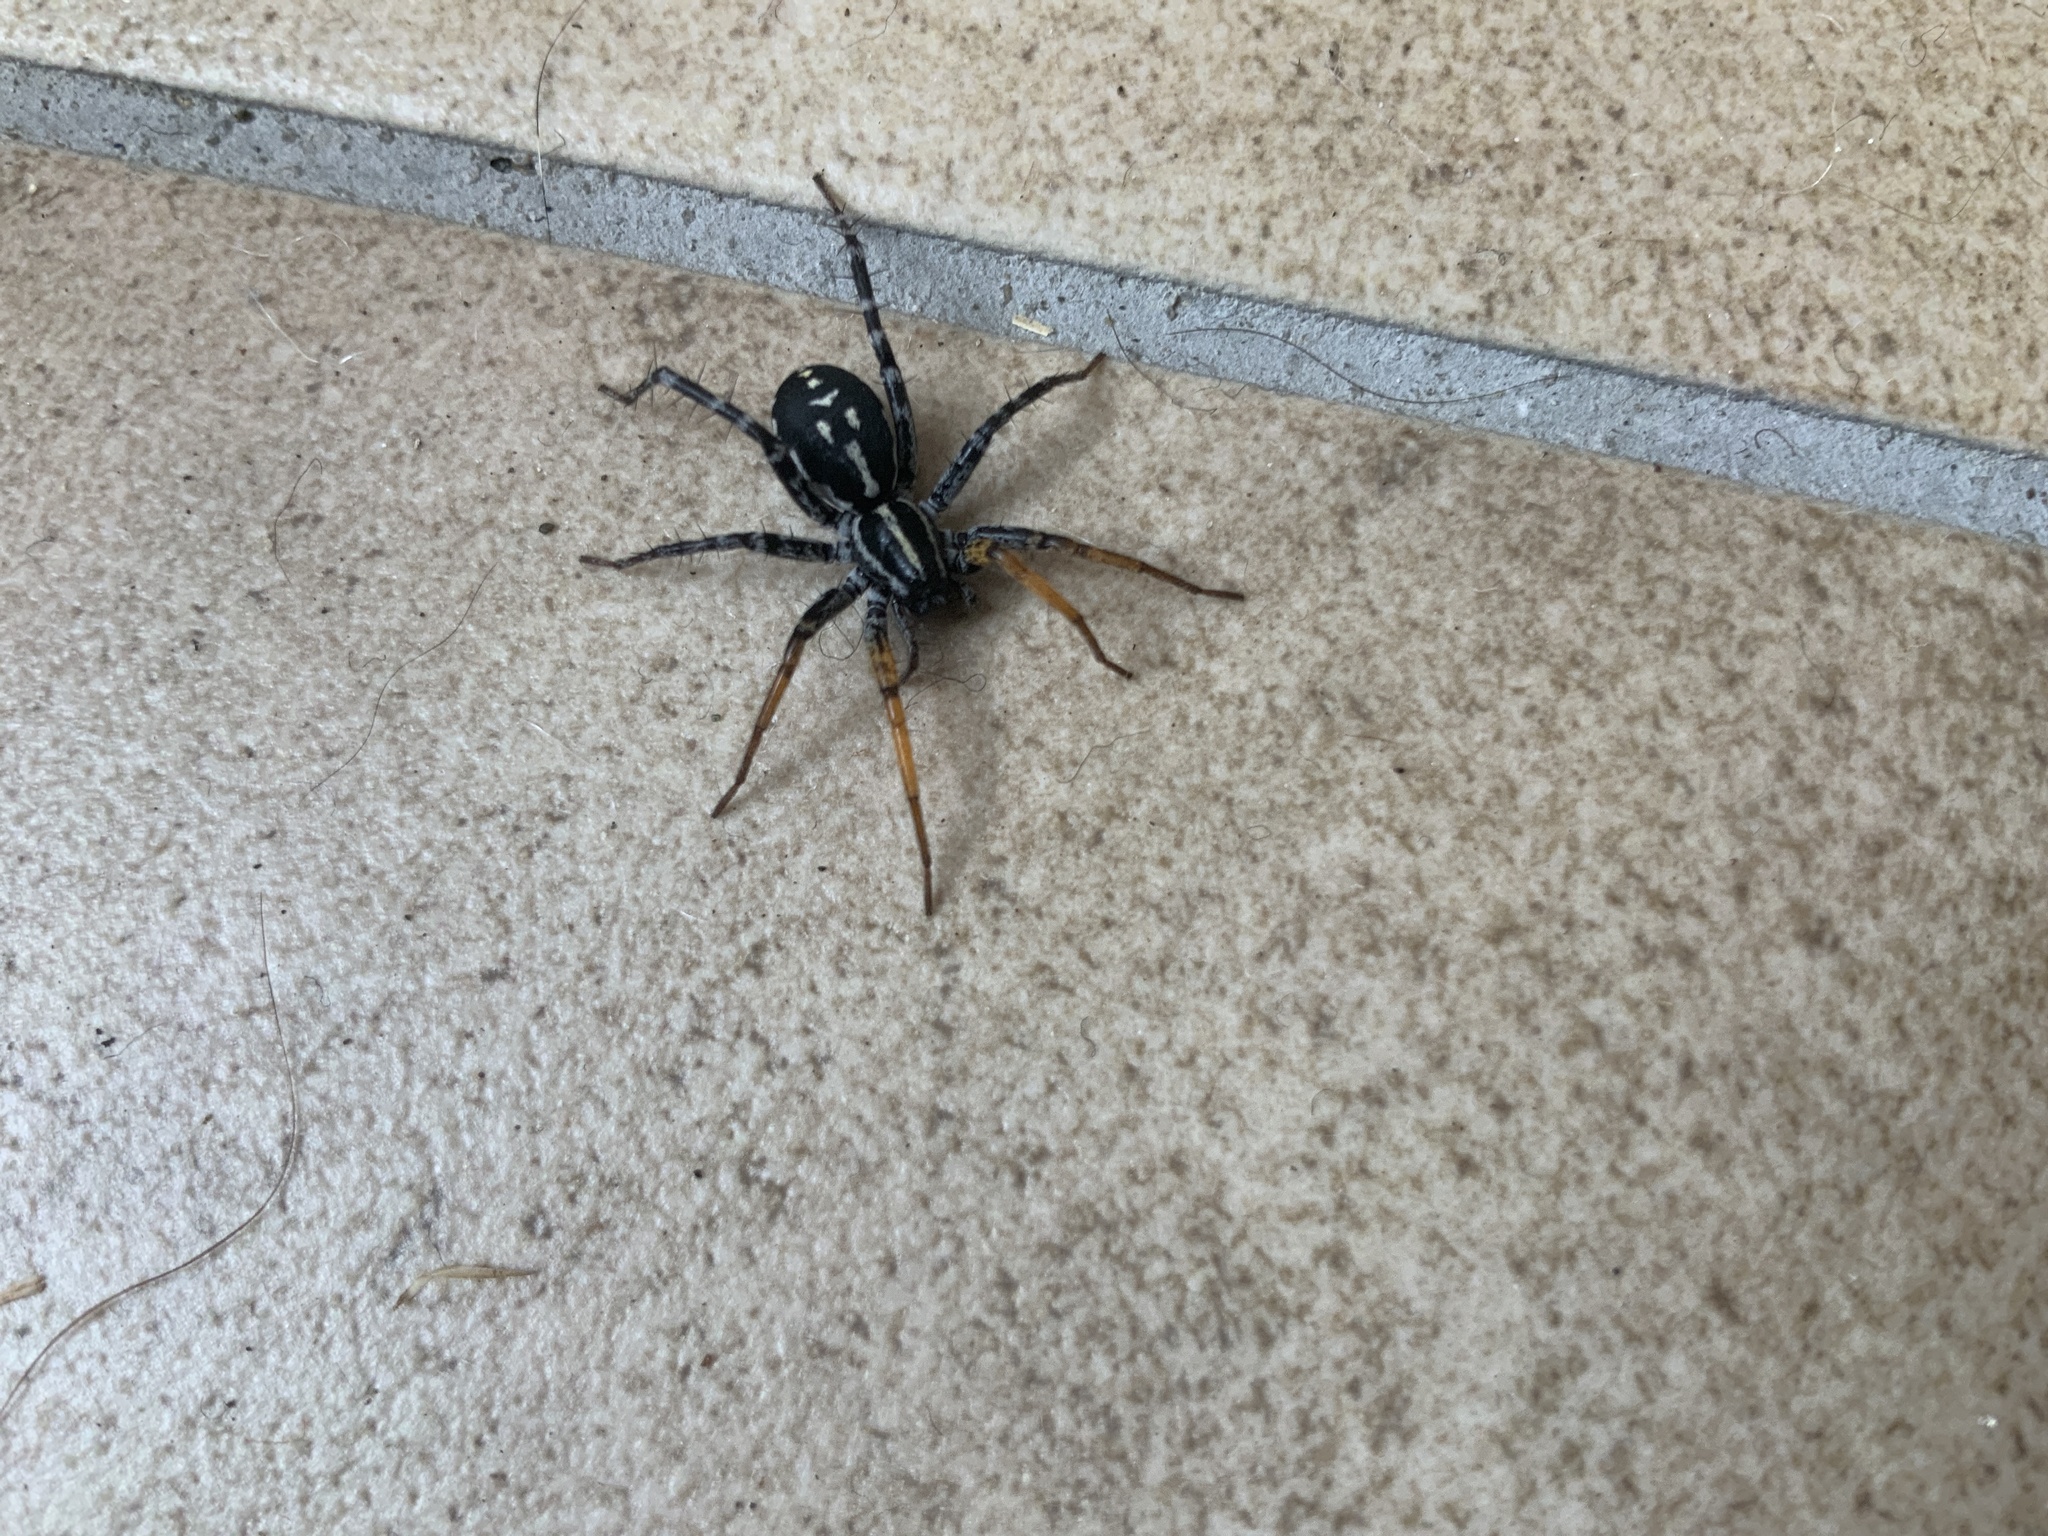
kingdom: Animalia
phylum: Arthropoda
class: Arachnida
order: Araneae
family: Corinnidae
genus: Nyssus
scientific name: Nyssus coloripes
